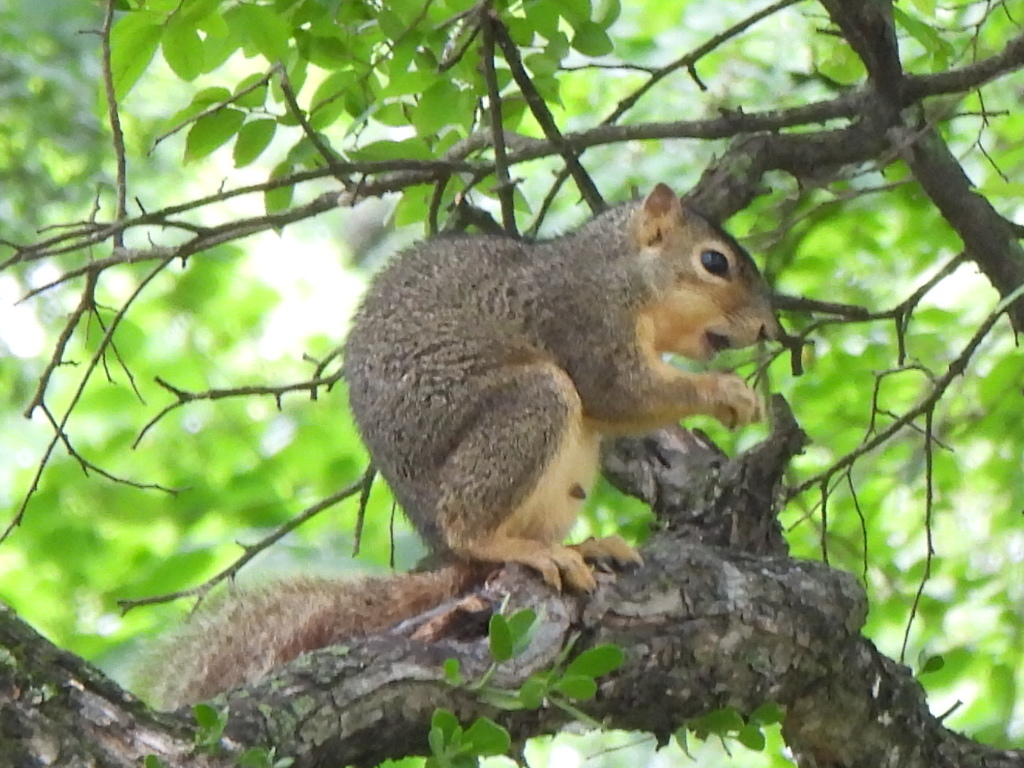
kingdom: Animalia
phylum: Chordata
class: Mammalia
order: Rodentia
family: Sciuridae
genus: Sciurus
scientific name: Sciurus niger
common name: Fox squirrel
